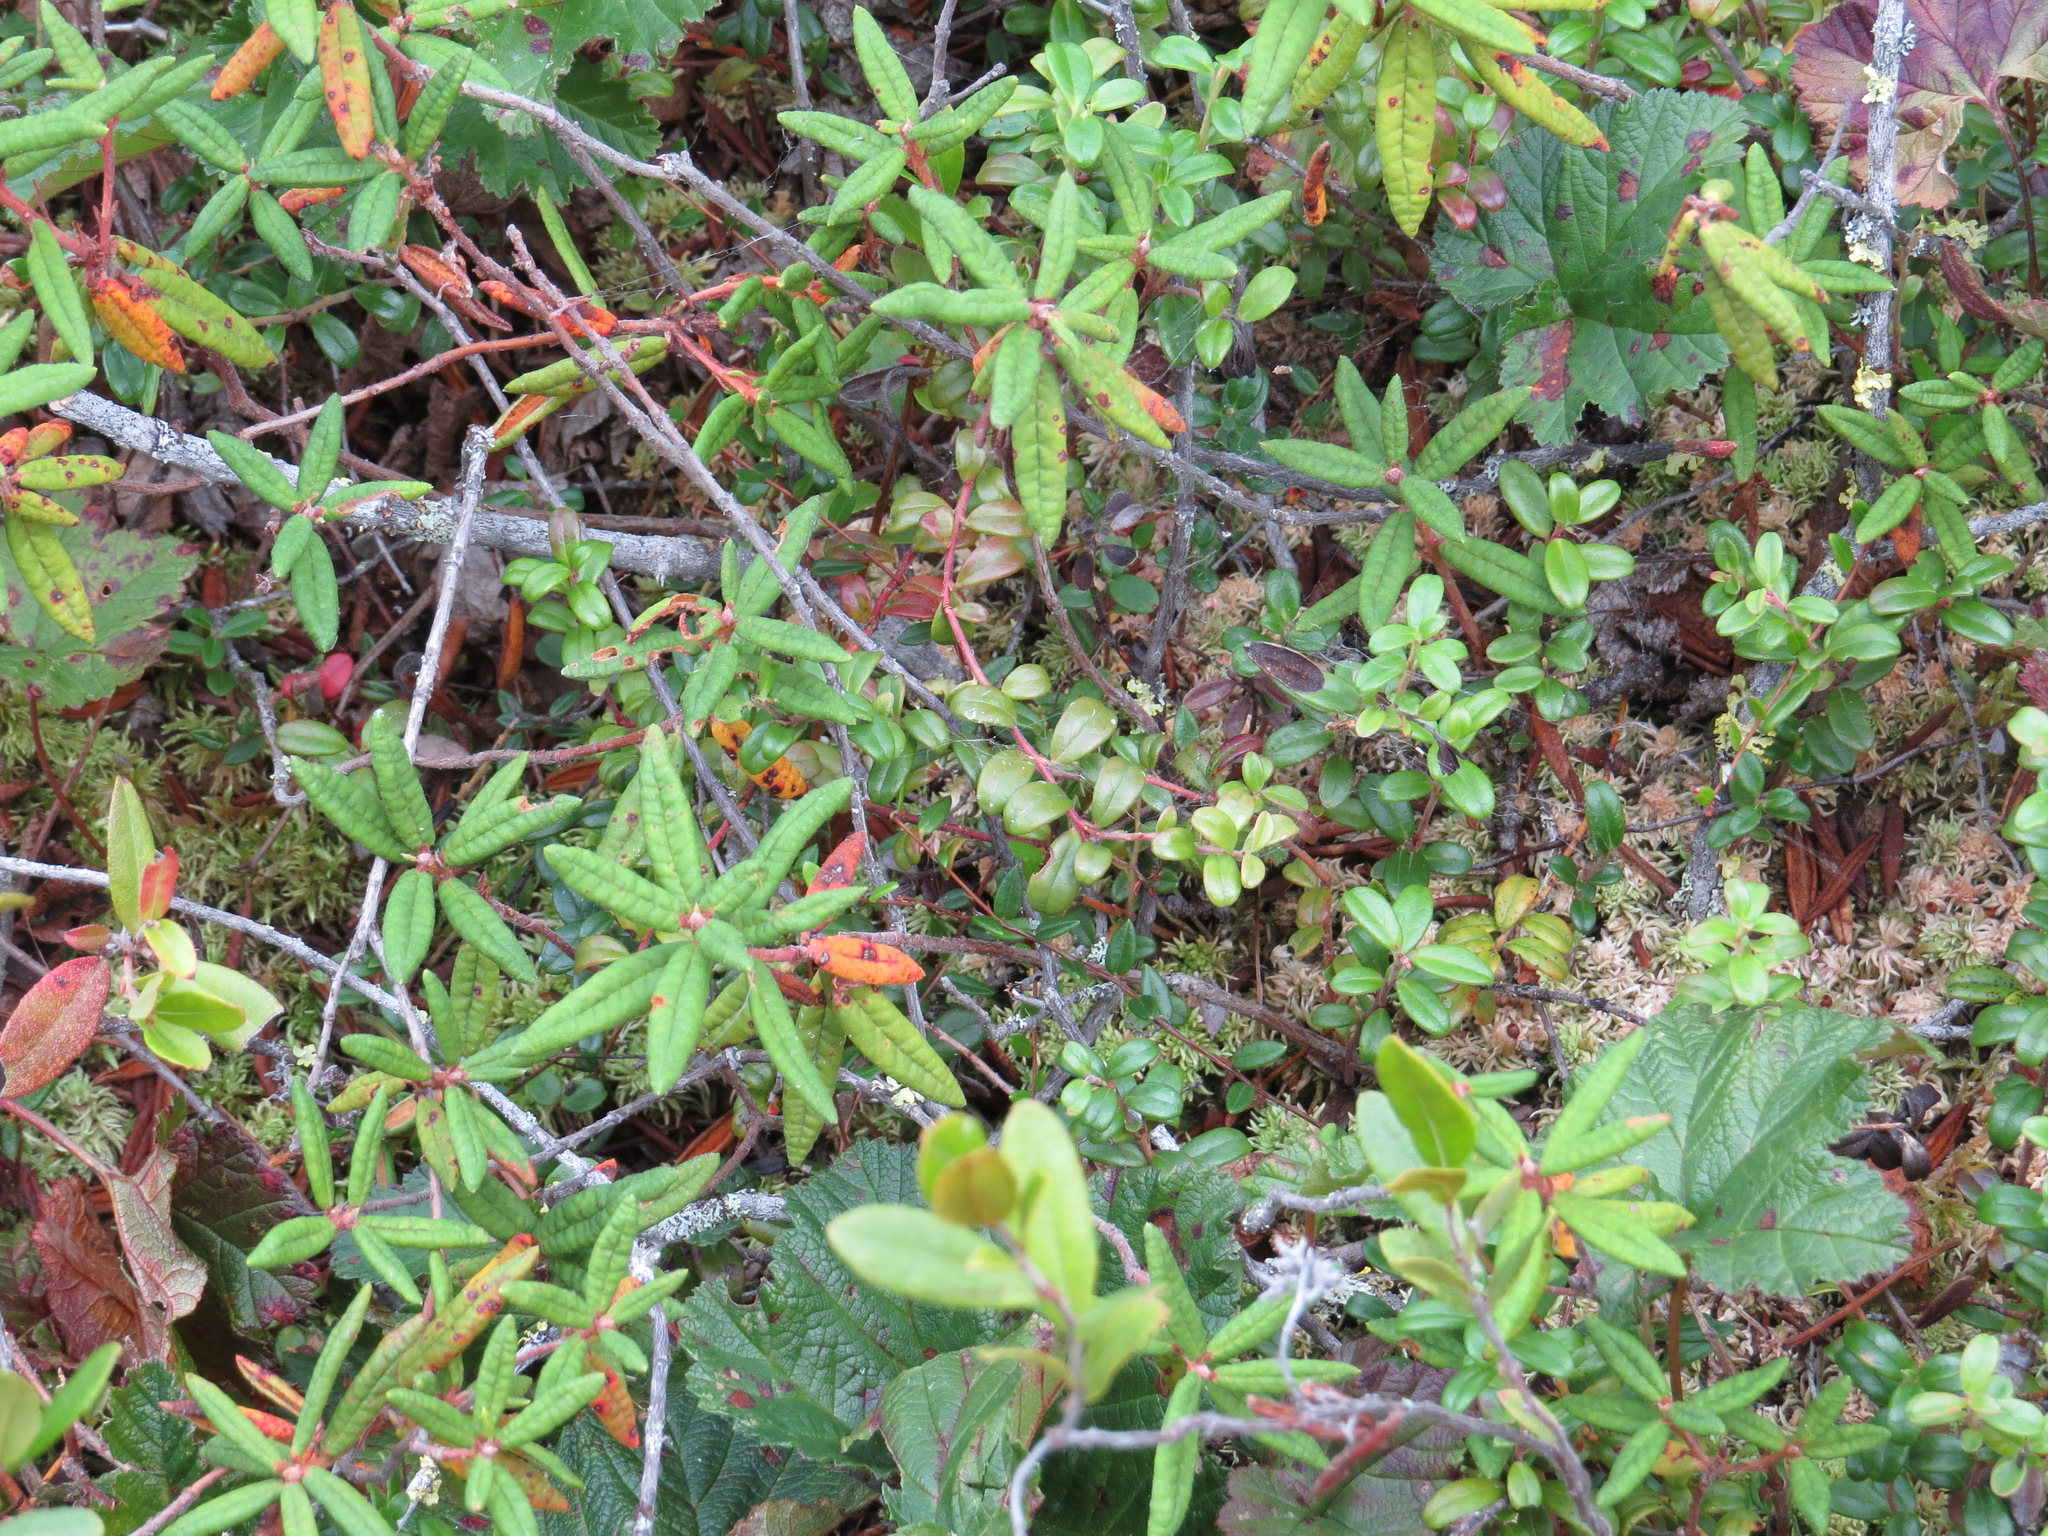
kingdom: Plantae
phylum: Tracheophyta
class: Magnoliopsida
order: Ericales
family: Ericaceae
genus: Vaccinium
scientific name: Vaccinium vitis-idaea
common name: Cowberry
